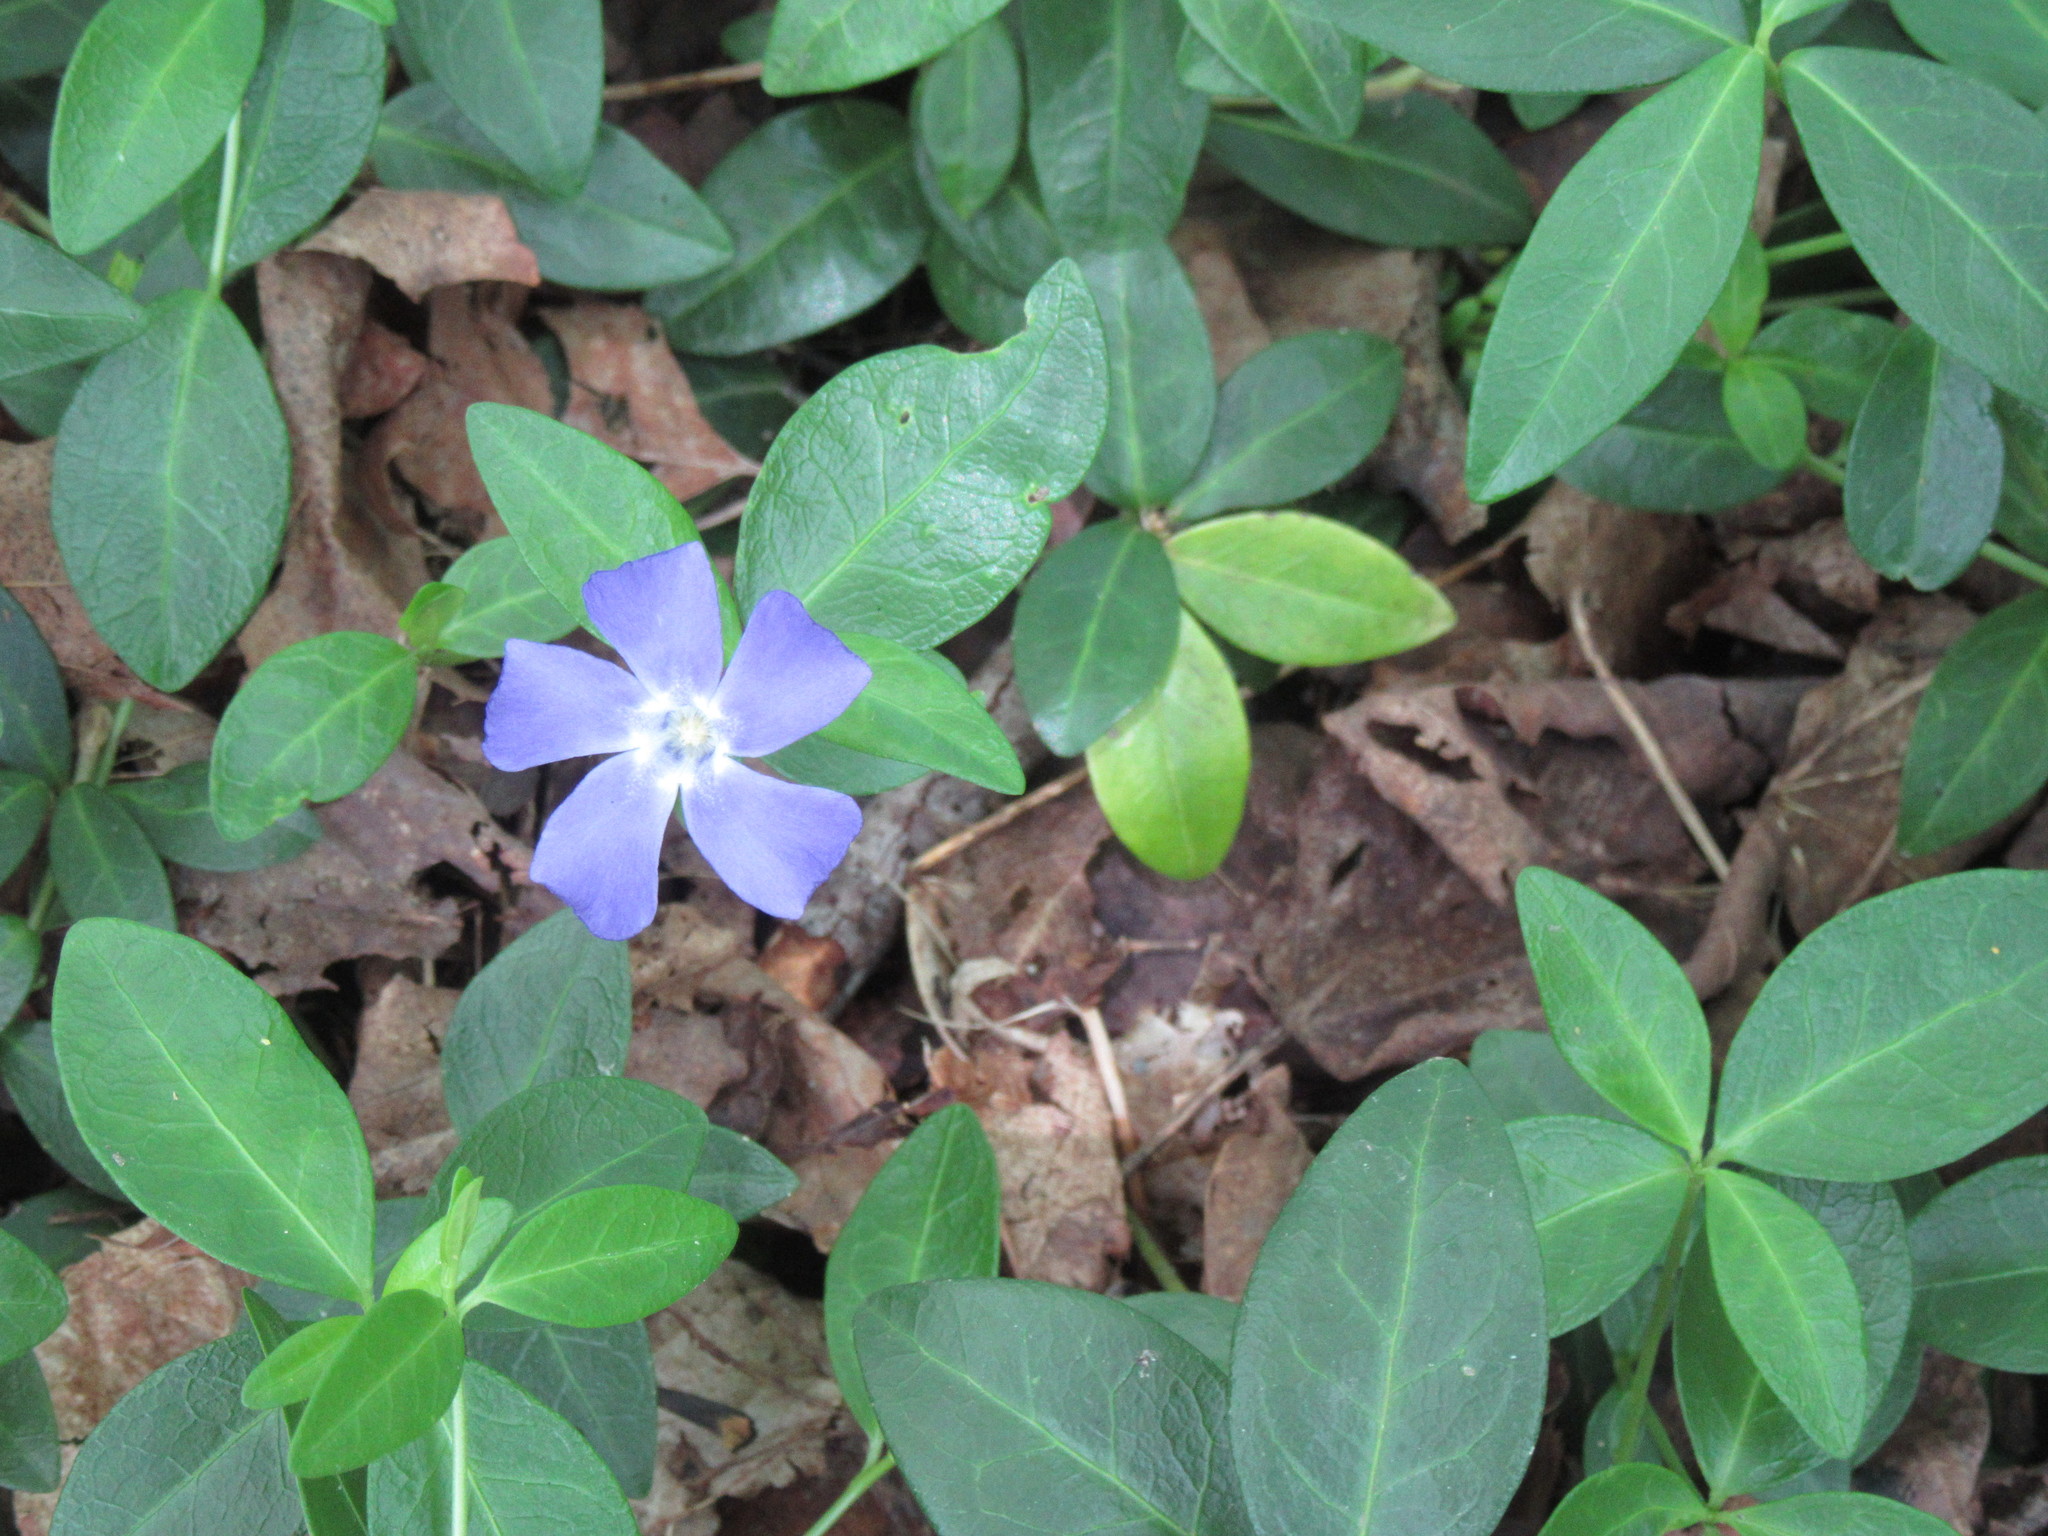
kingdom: Plantae
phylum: Tracheophyta
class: Magnoliopsida
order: Gentianales
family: Apocynaceae
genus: Vinca
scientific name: Vinca minor
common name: Lesser periwinkle
